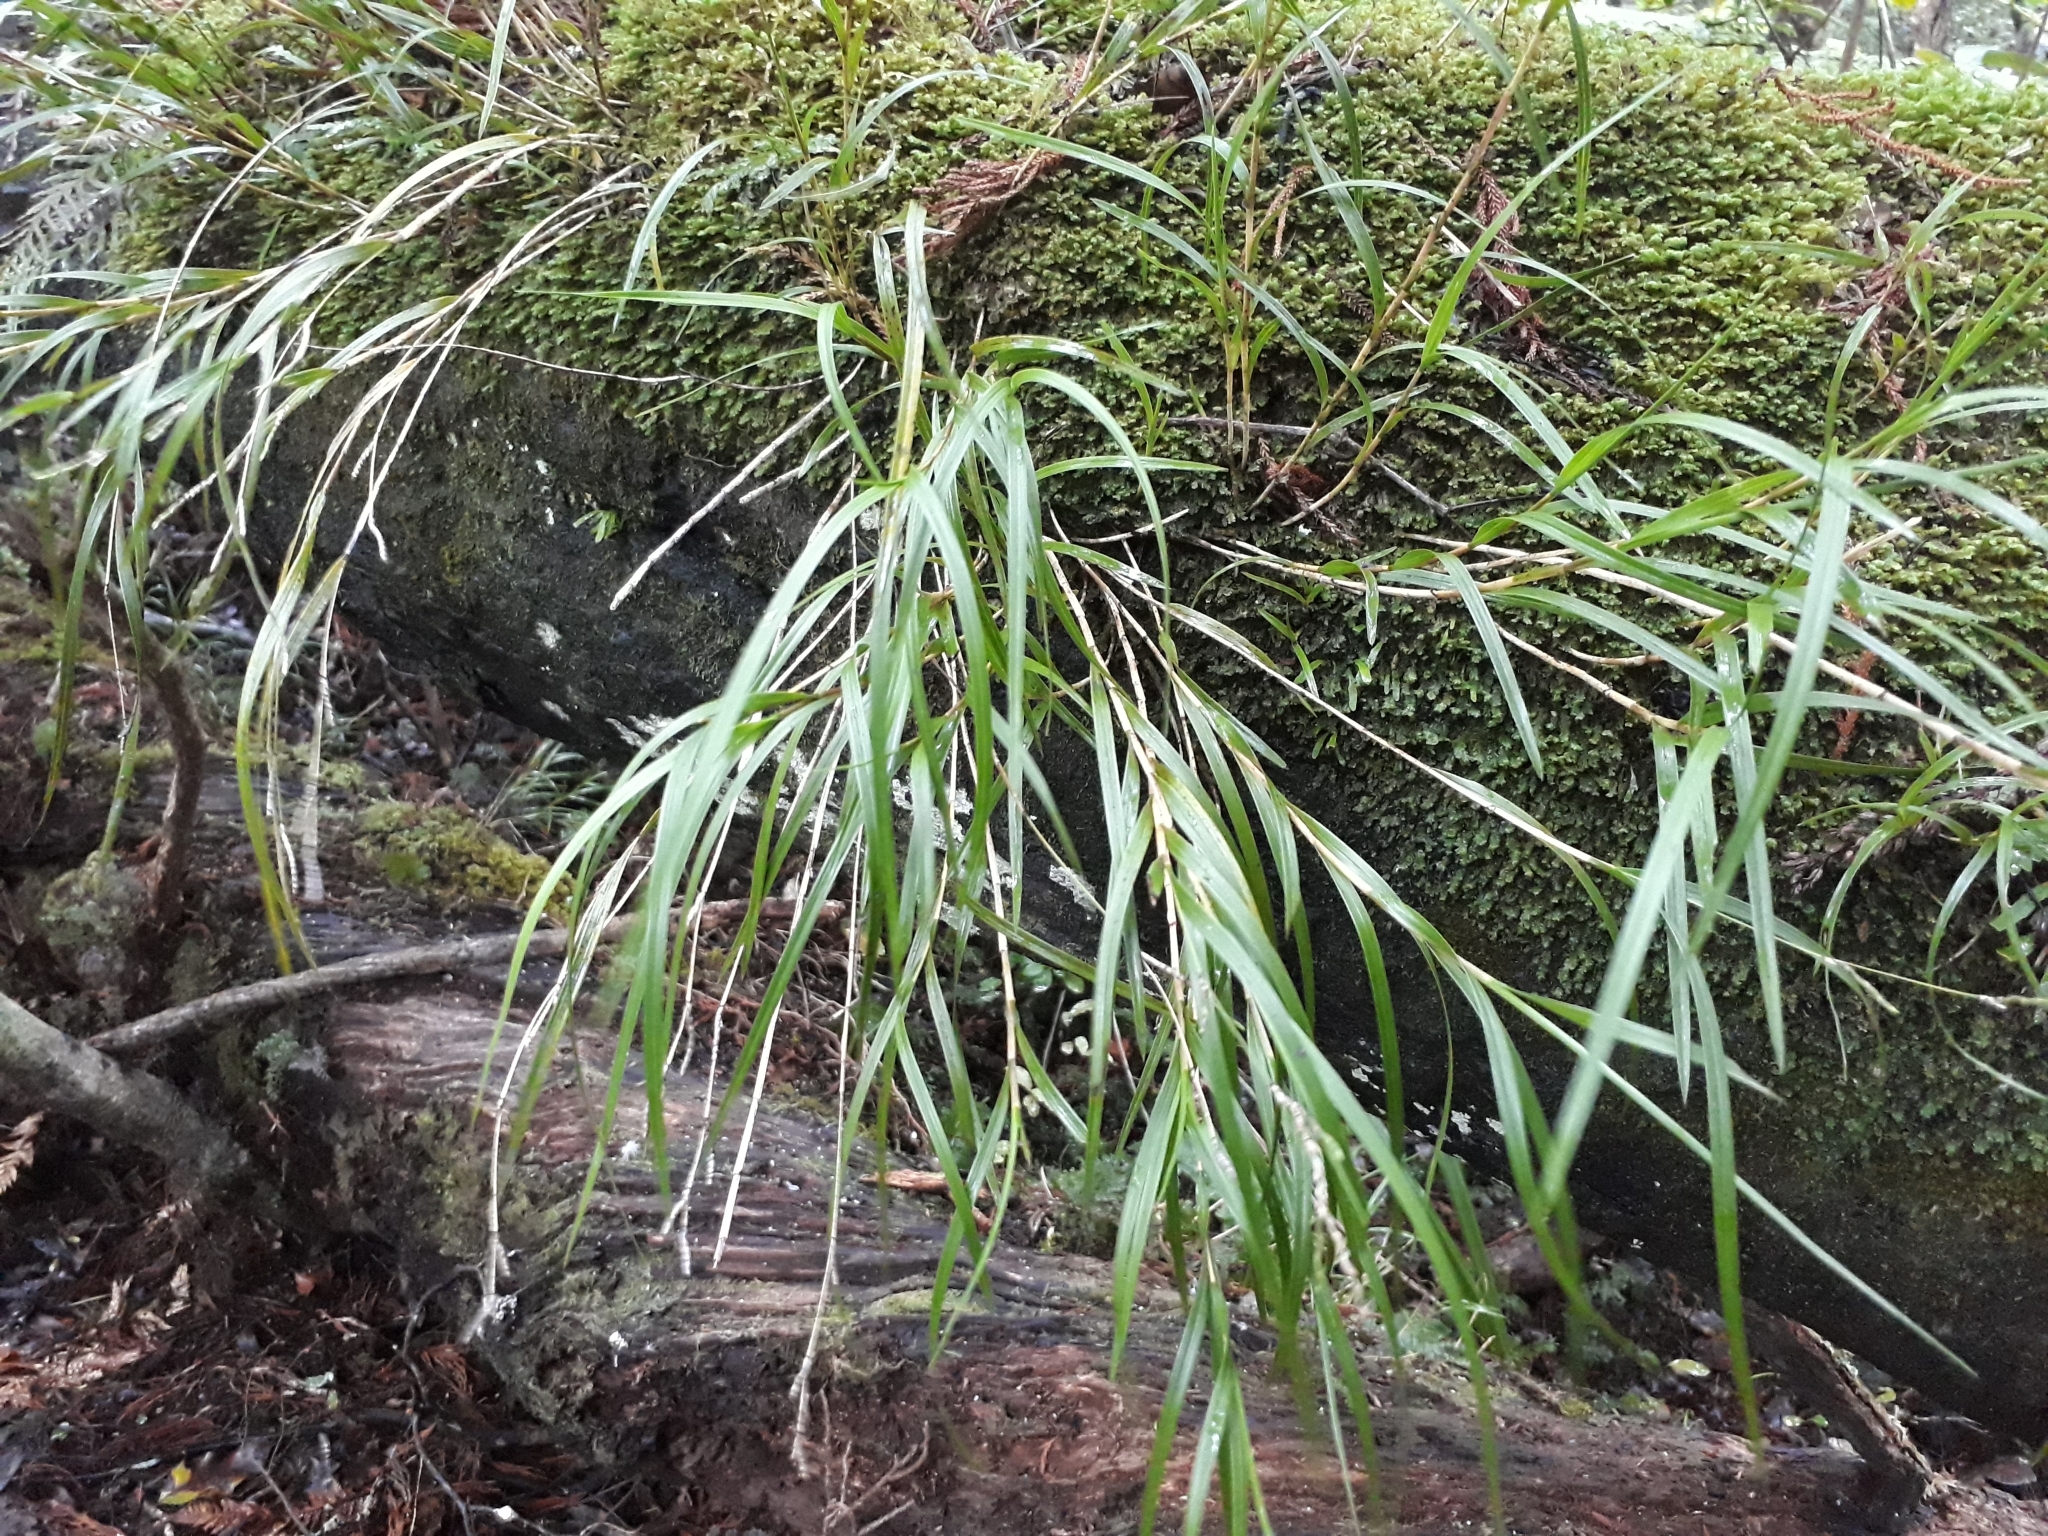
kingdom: Plantae
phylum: Tracheophyta
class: Liliopsida
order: Asparagales
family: Orchidaceae
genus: Earina
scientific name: Earina mucronata
